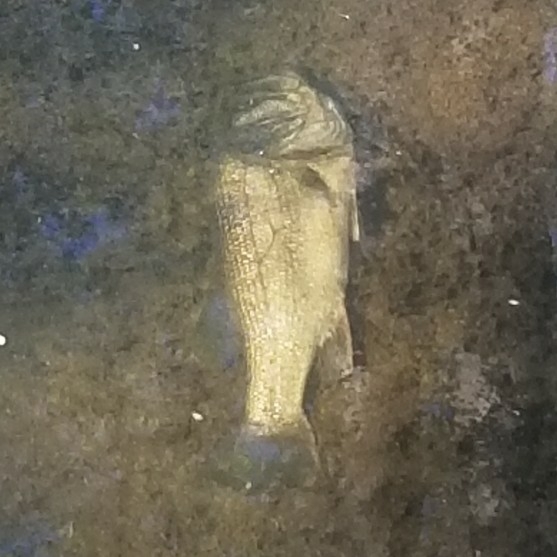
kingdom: Animalia
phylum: Chordata
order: Perciformes
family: Centrarchidae
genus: Micropterus
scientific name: Micropterus
